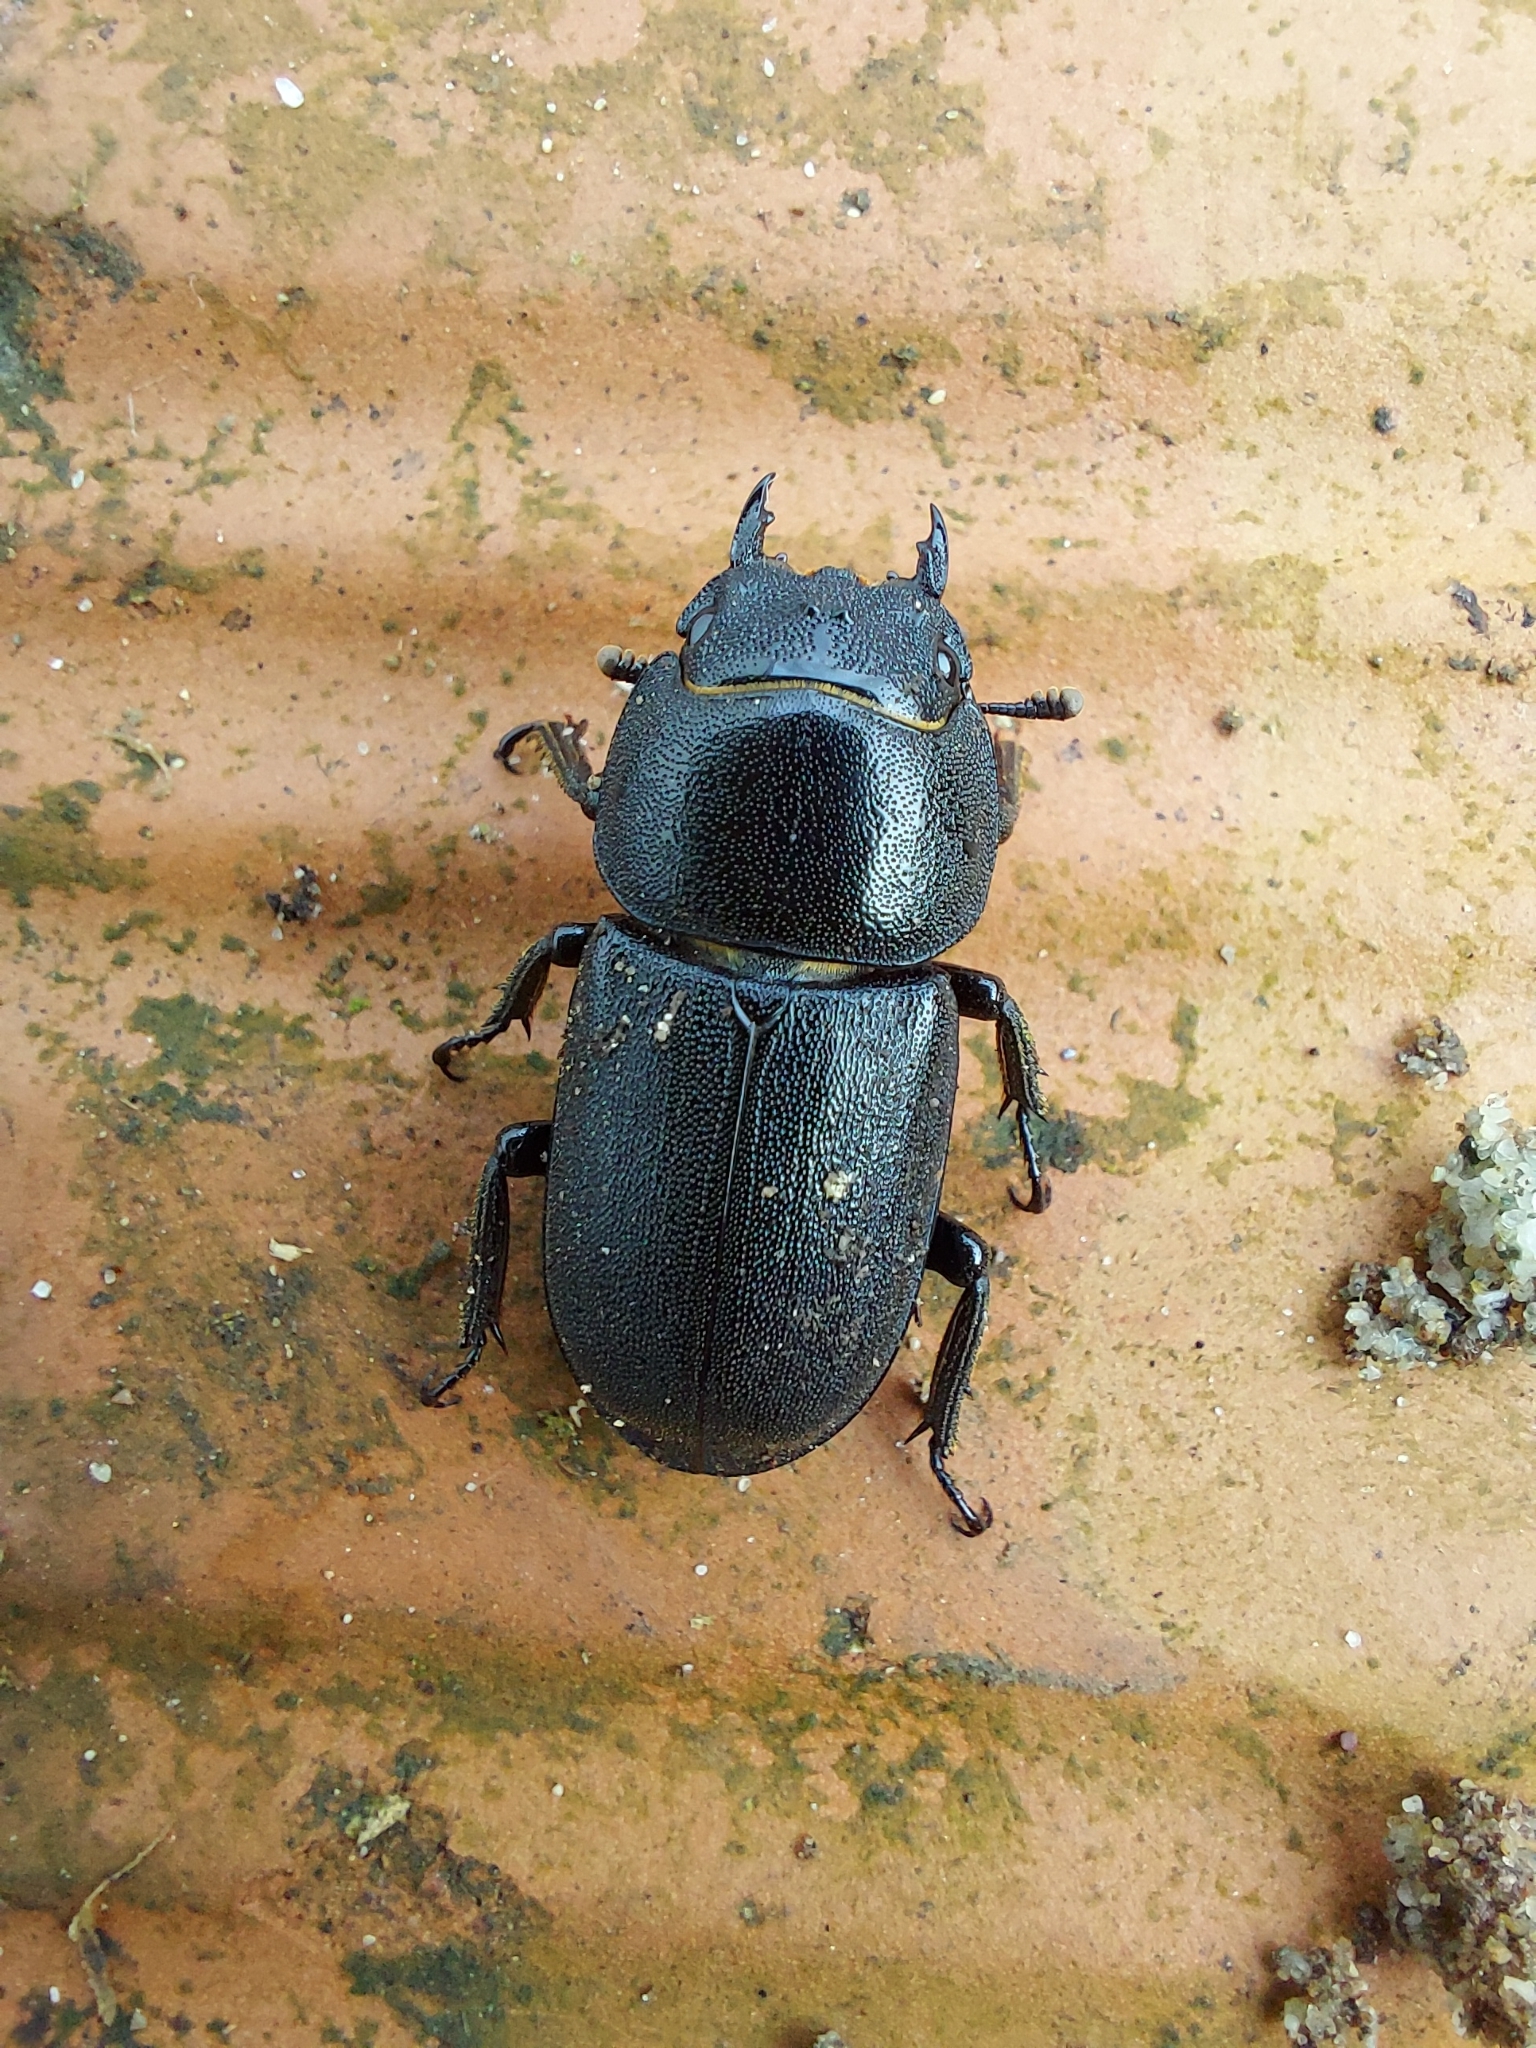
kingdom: Animalia
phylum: Arthropoda
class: Insecta
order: Coleoptera
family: Lucanidae
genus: Dorcus
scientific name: Dorcus parallelipipedus
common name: Lesser stag beetle
